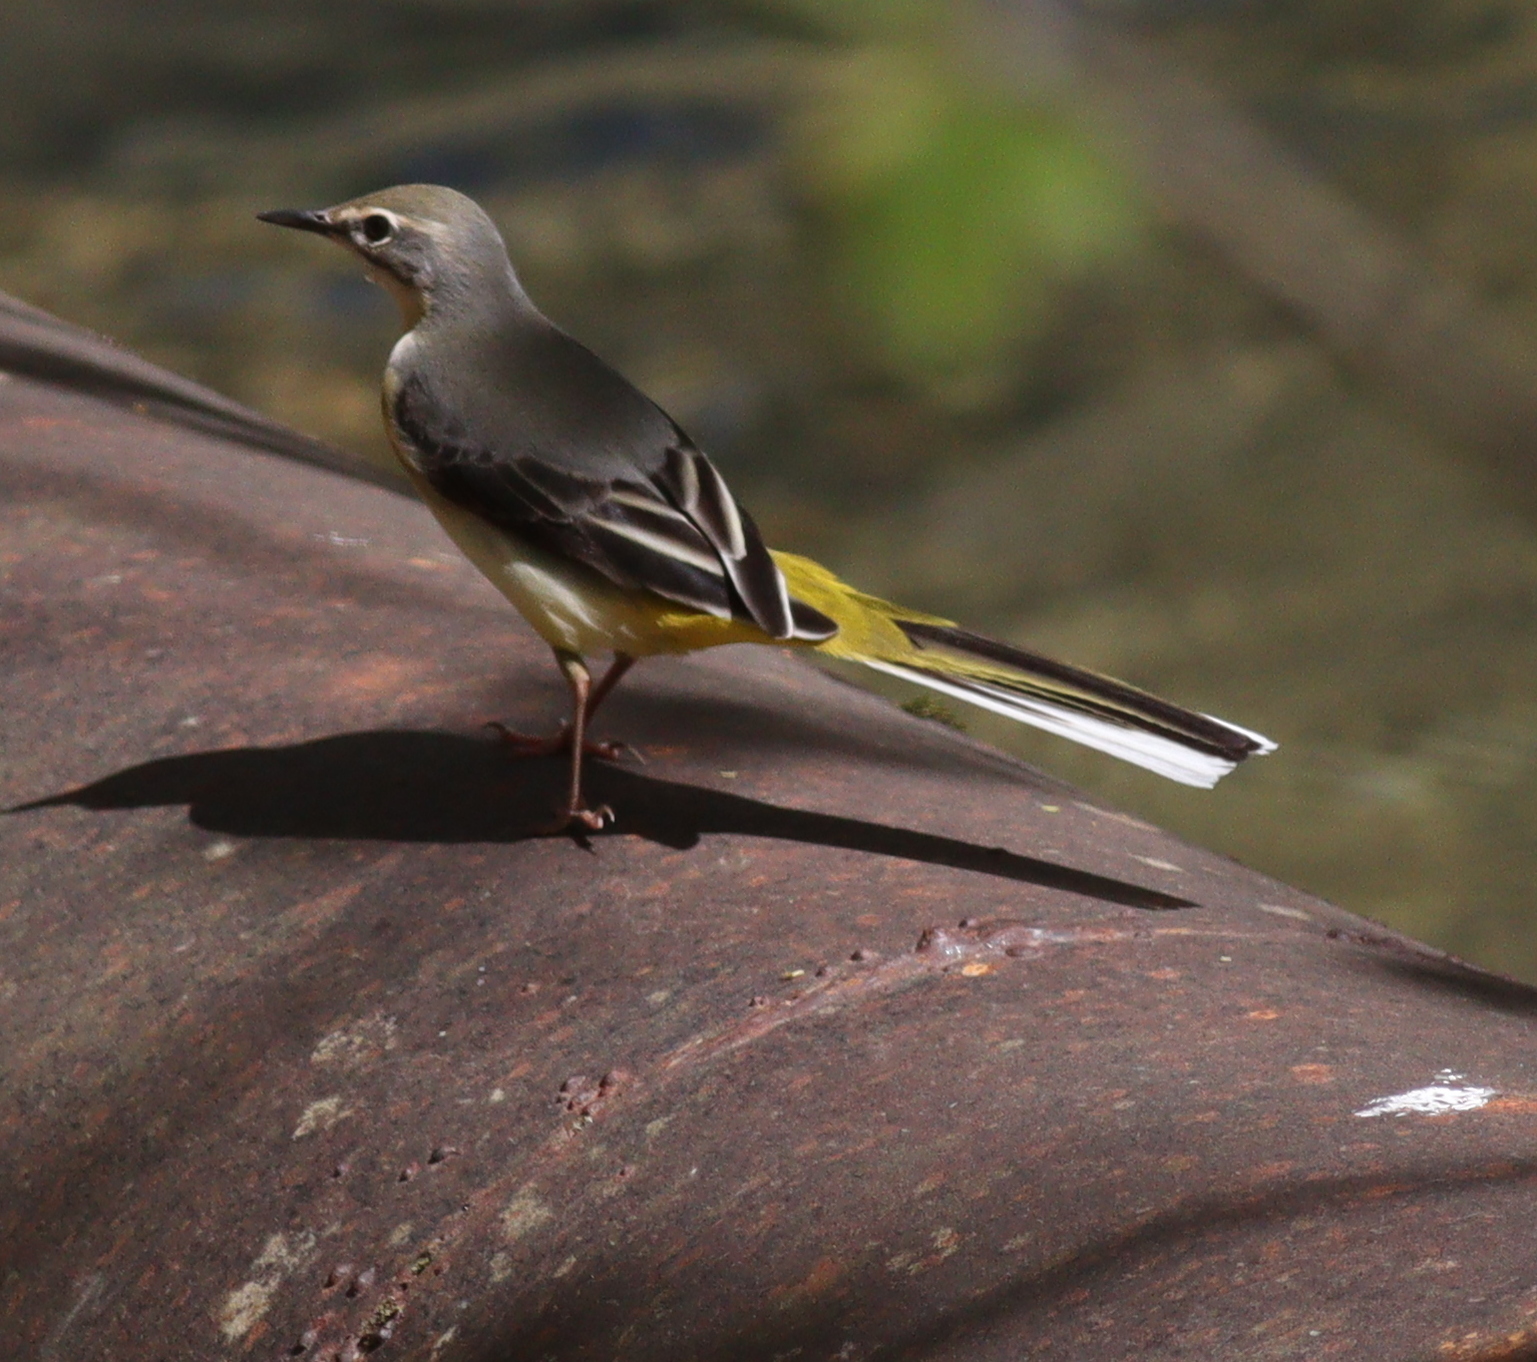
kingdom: Animalia
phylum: Chordata
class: Aves
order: Passeriformes
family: Motacillidae
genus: Motacilla
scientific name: Motacilla cinerea
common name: Grey wagtail
